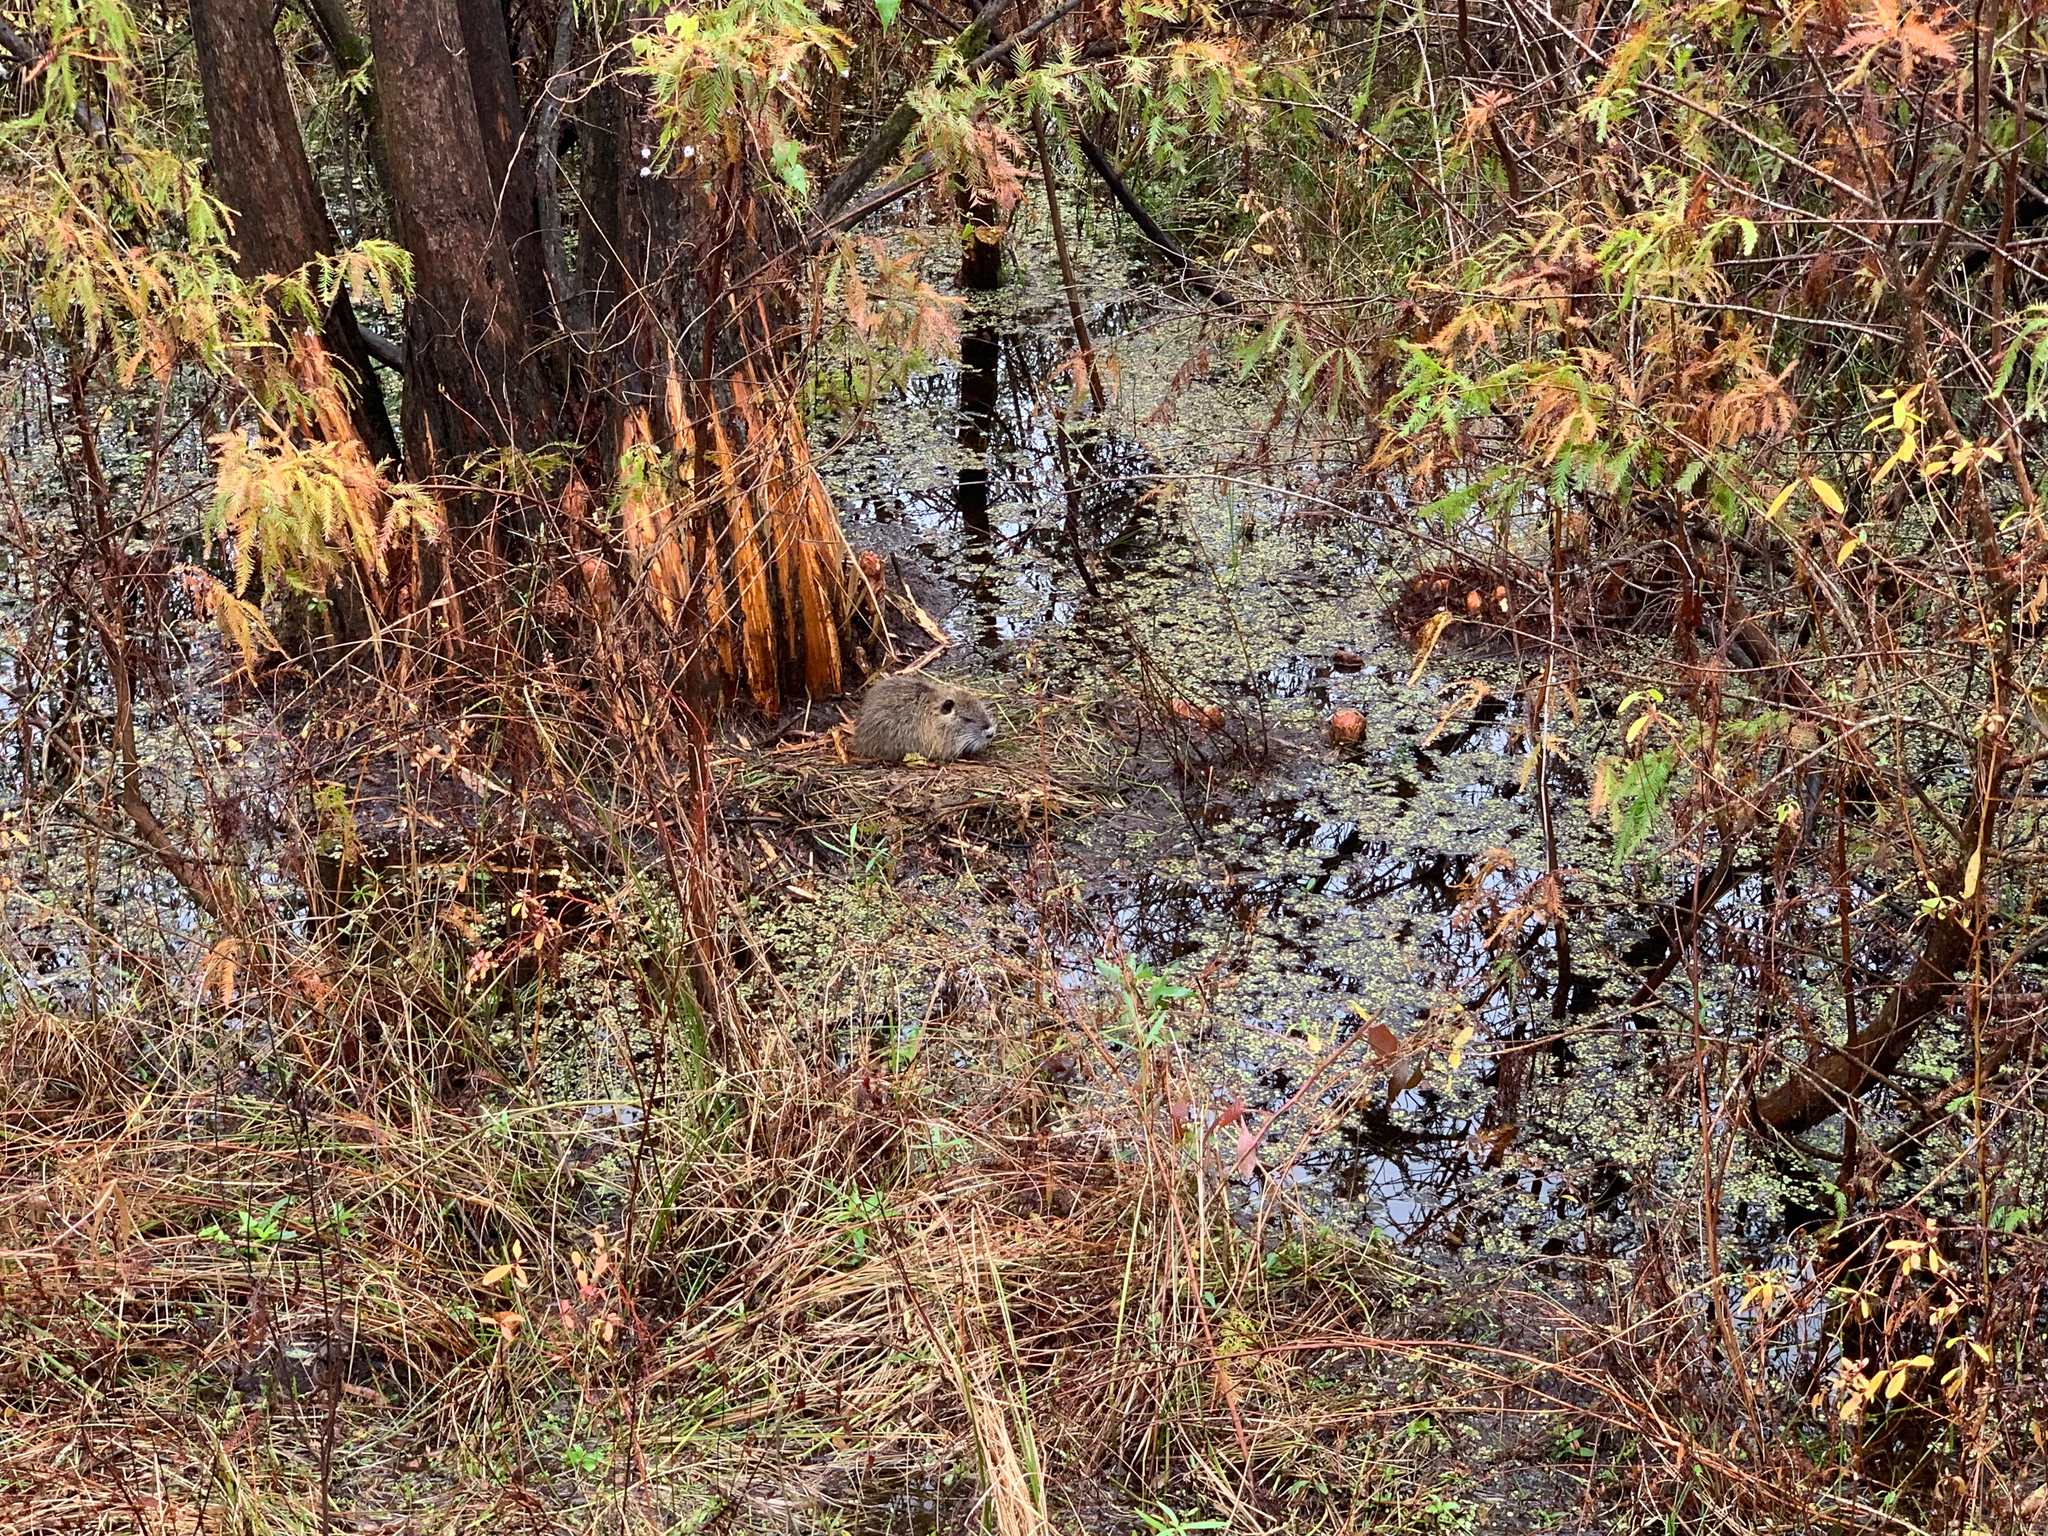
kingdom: Animalia
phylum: Chordata
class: Mammalia
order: Rodentia
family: Myocastoridae
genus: Myocastor
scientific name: Myocastor coypus
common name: Coypu
